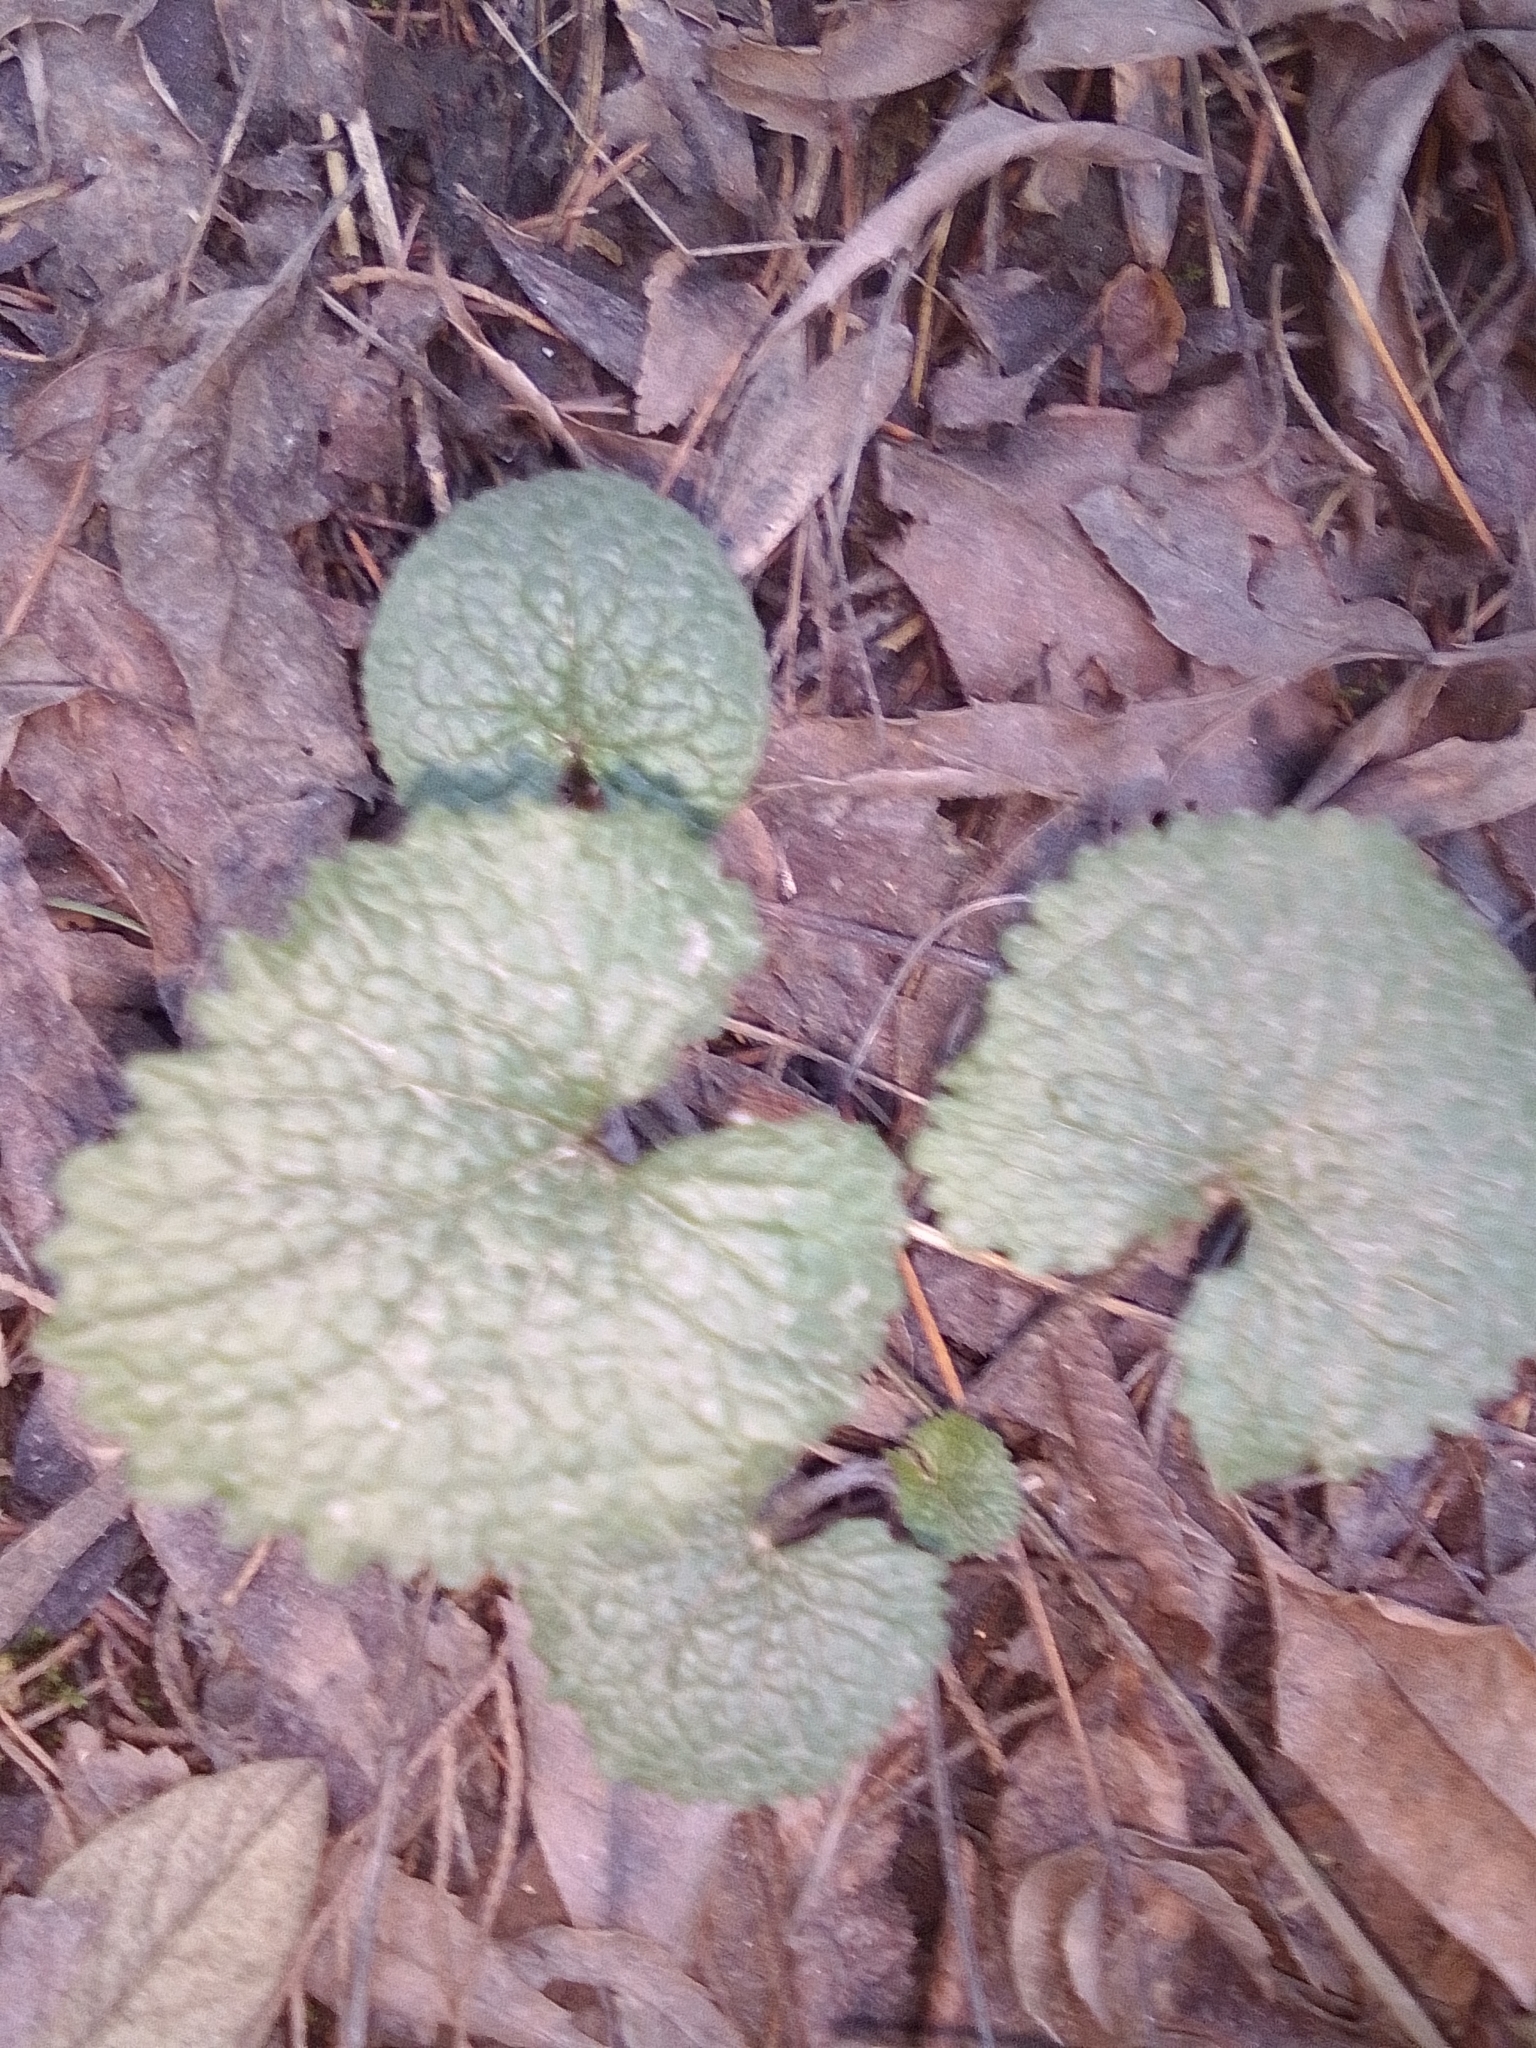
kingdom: Plantae
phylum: Tracheophyta
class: Magnoliopsida
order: Brassicales
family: Brassicaceae
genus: Alliaria
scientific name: Alliaria petiolata
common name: Garlic mustard
